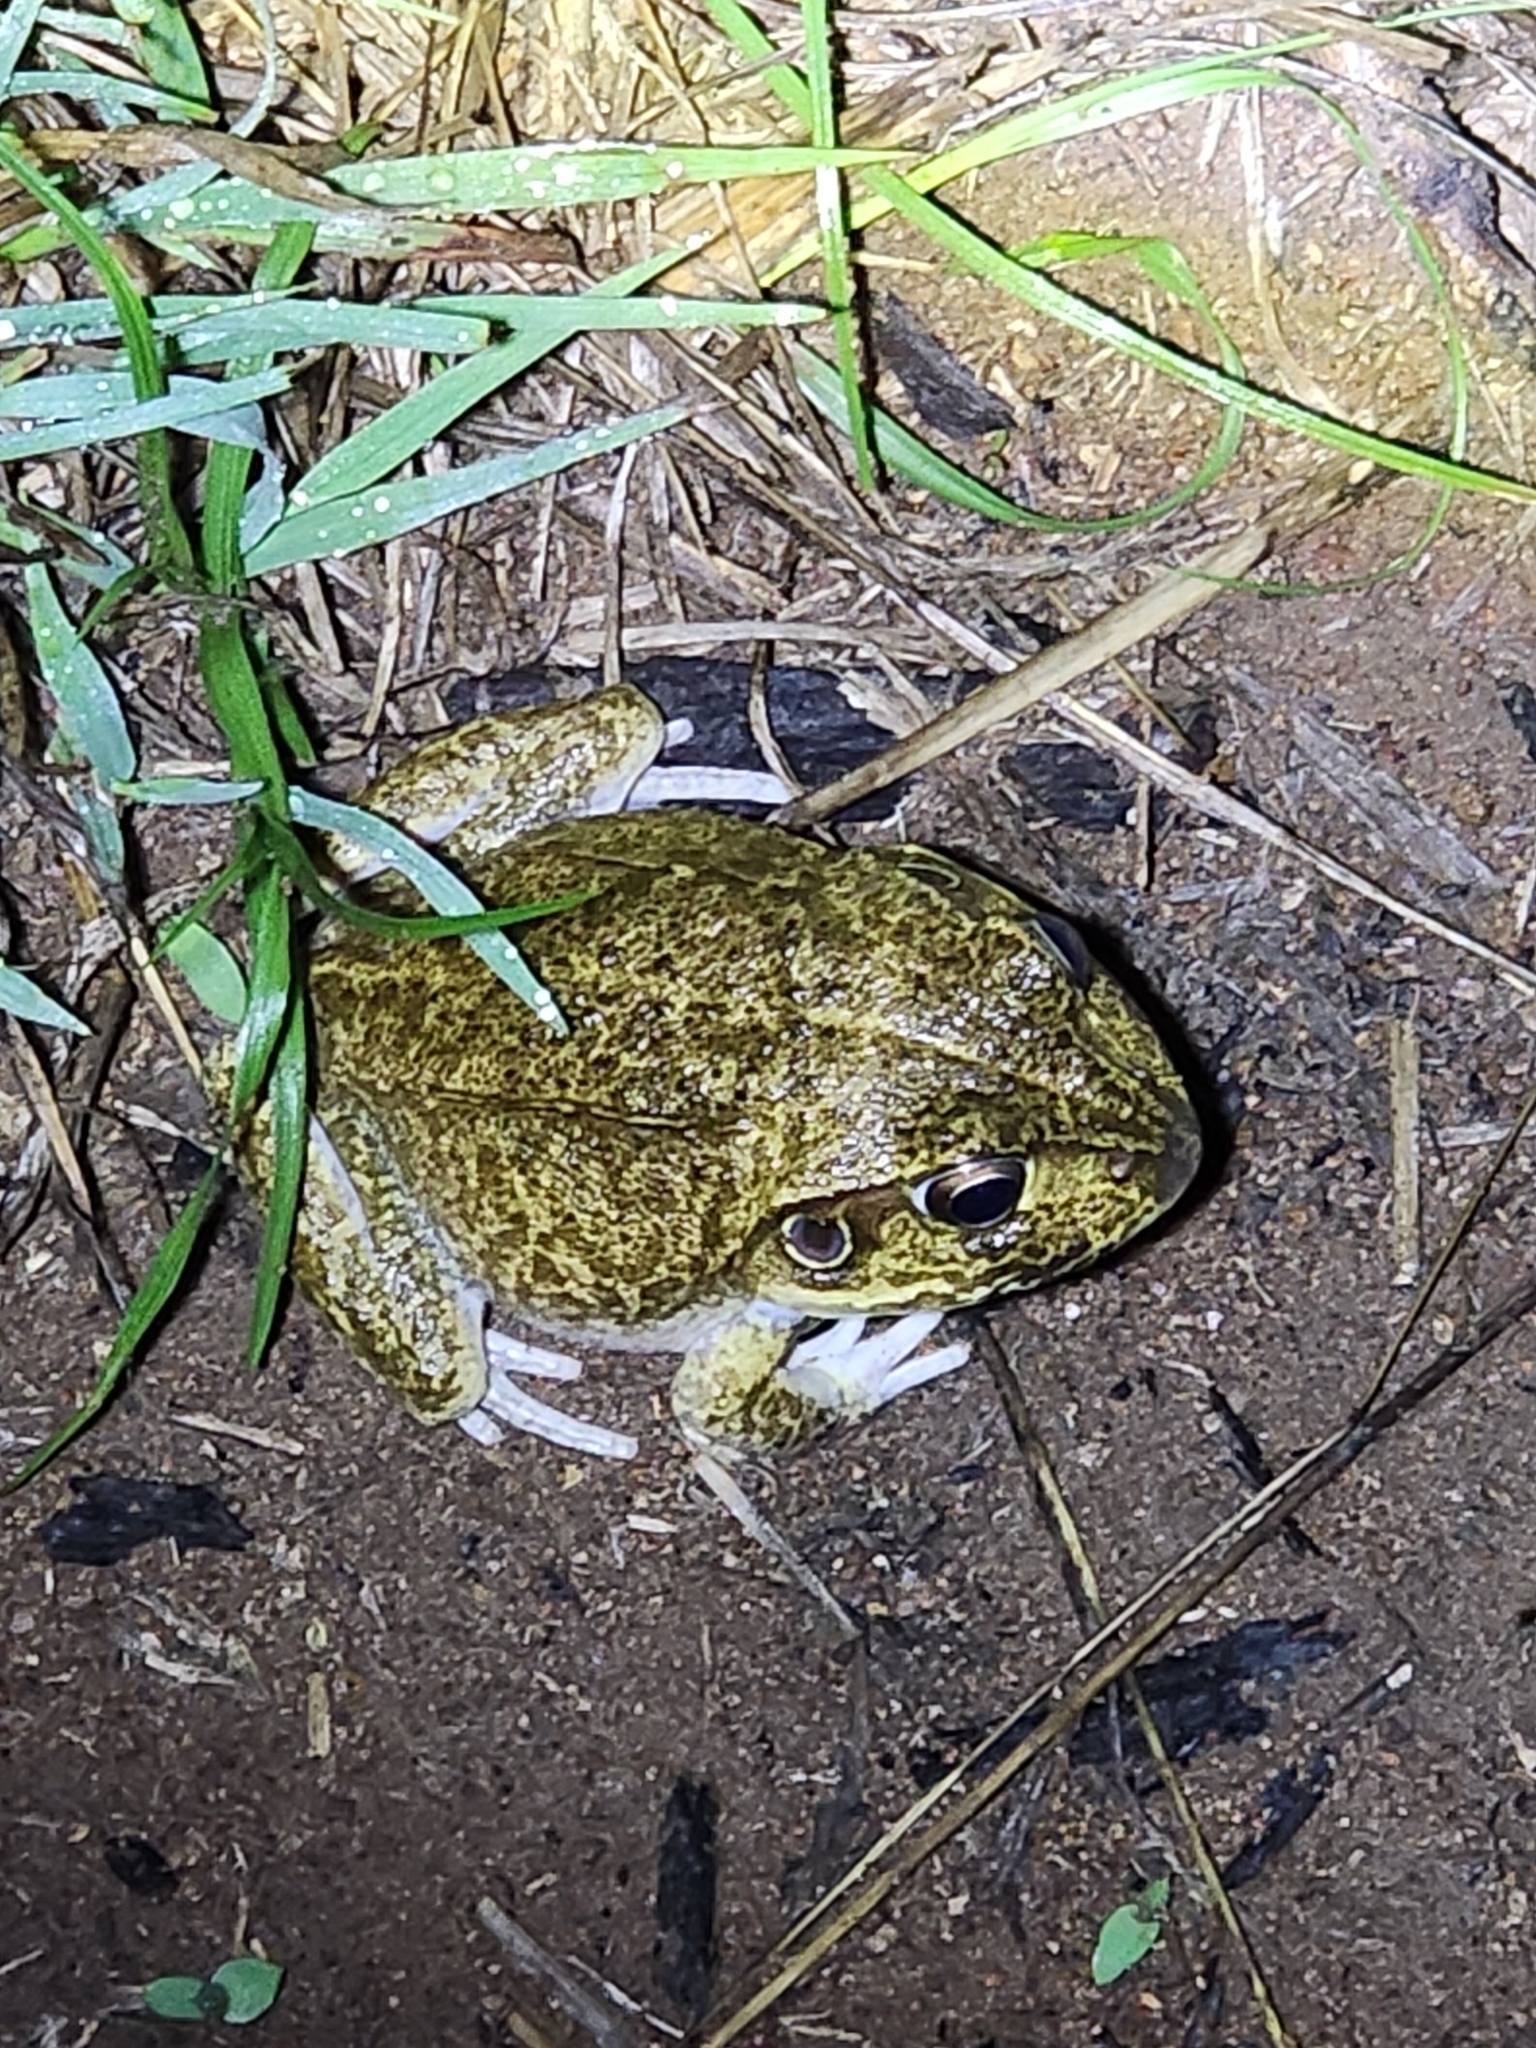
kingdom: Animalia
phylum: Chordata
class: Amphibia
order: Anura
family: Pelodryadidae
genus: Ranoidea
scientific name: Ranoidea novaehollandiae
